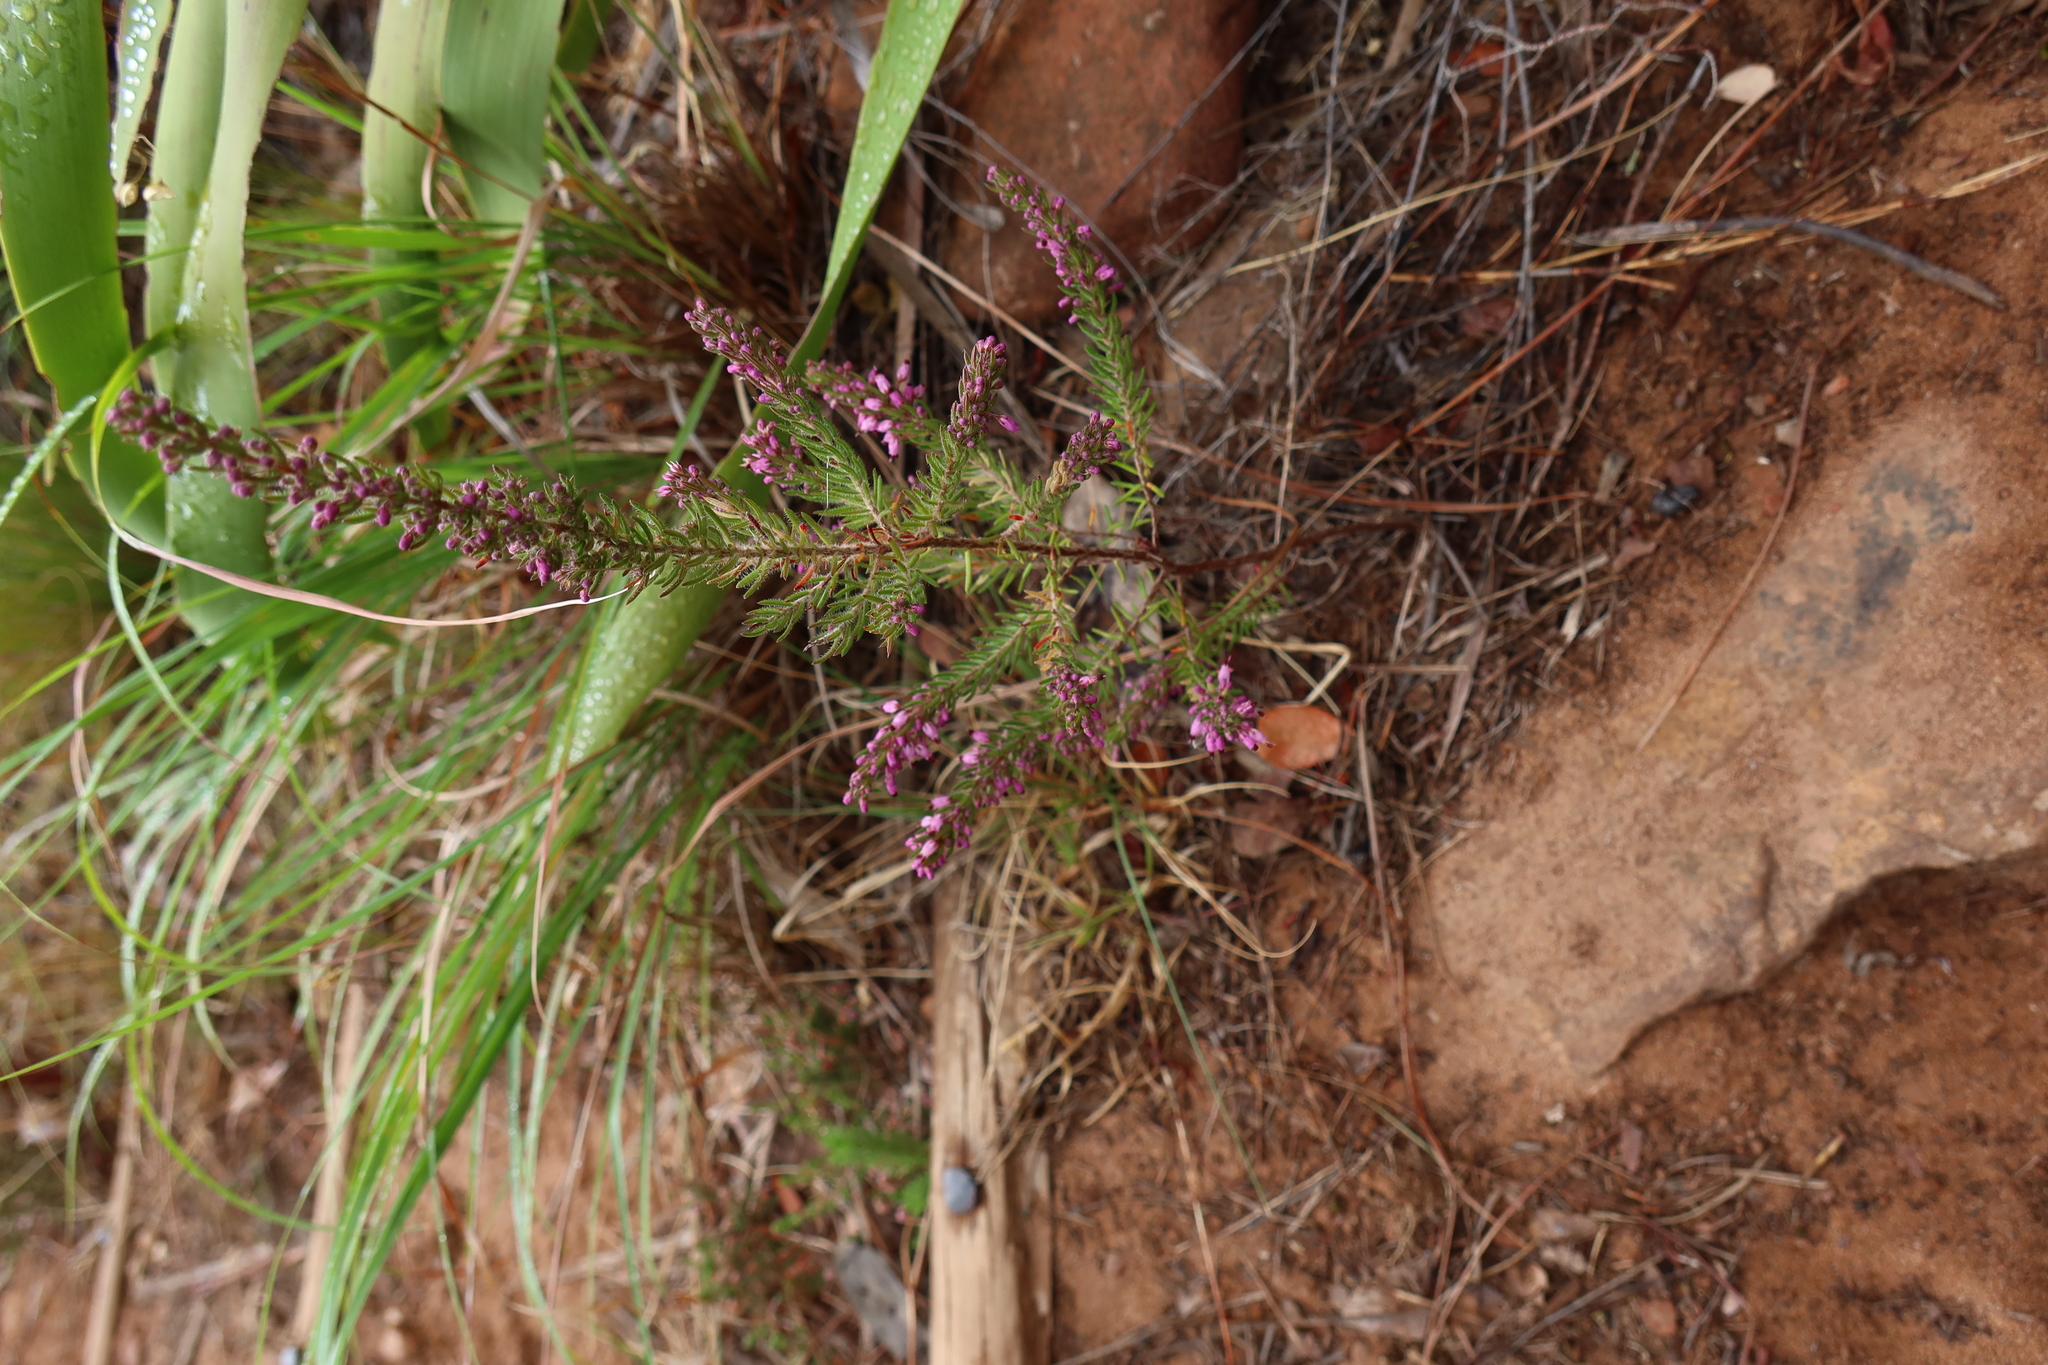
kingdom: Plantae
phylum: Tracheophyta
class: Magnoliopsida
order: Ericales
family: Ericaceae
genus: Erica
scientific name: Erica nudiflora
